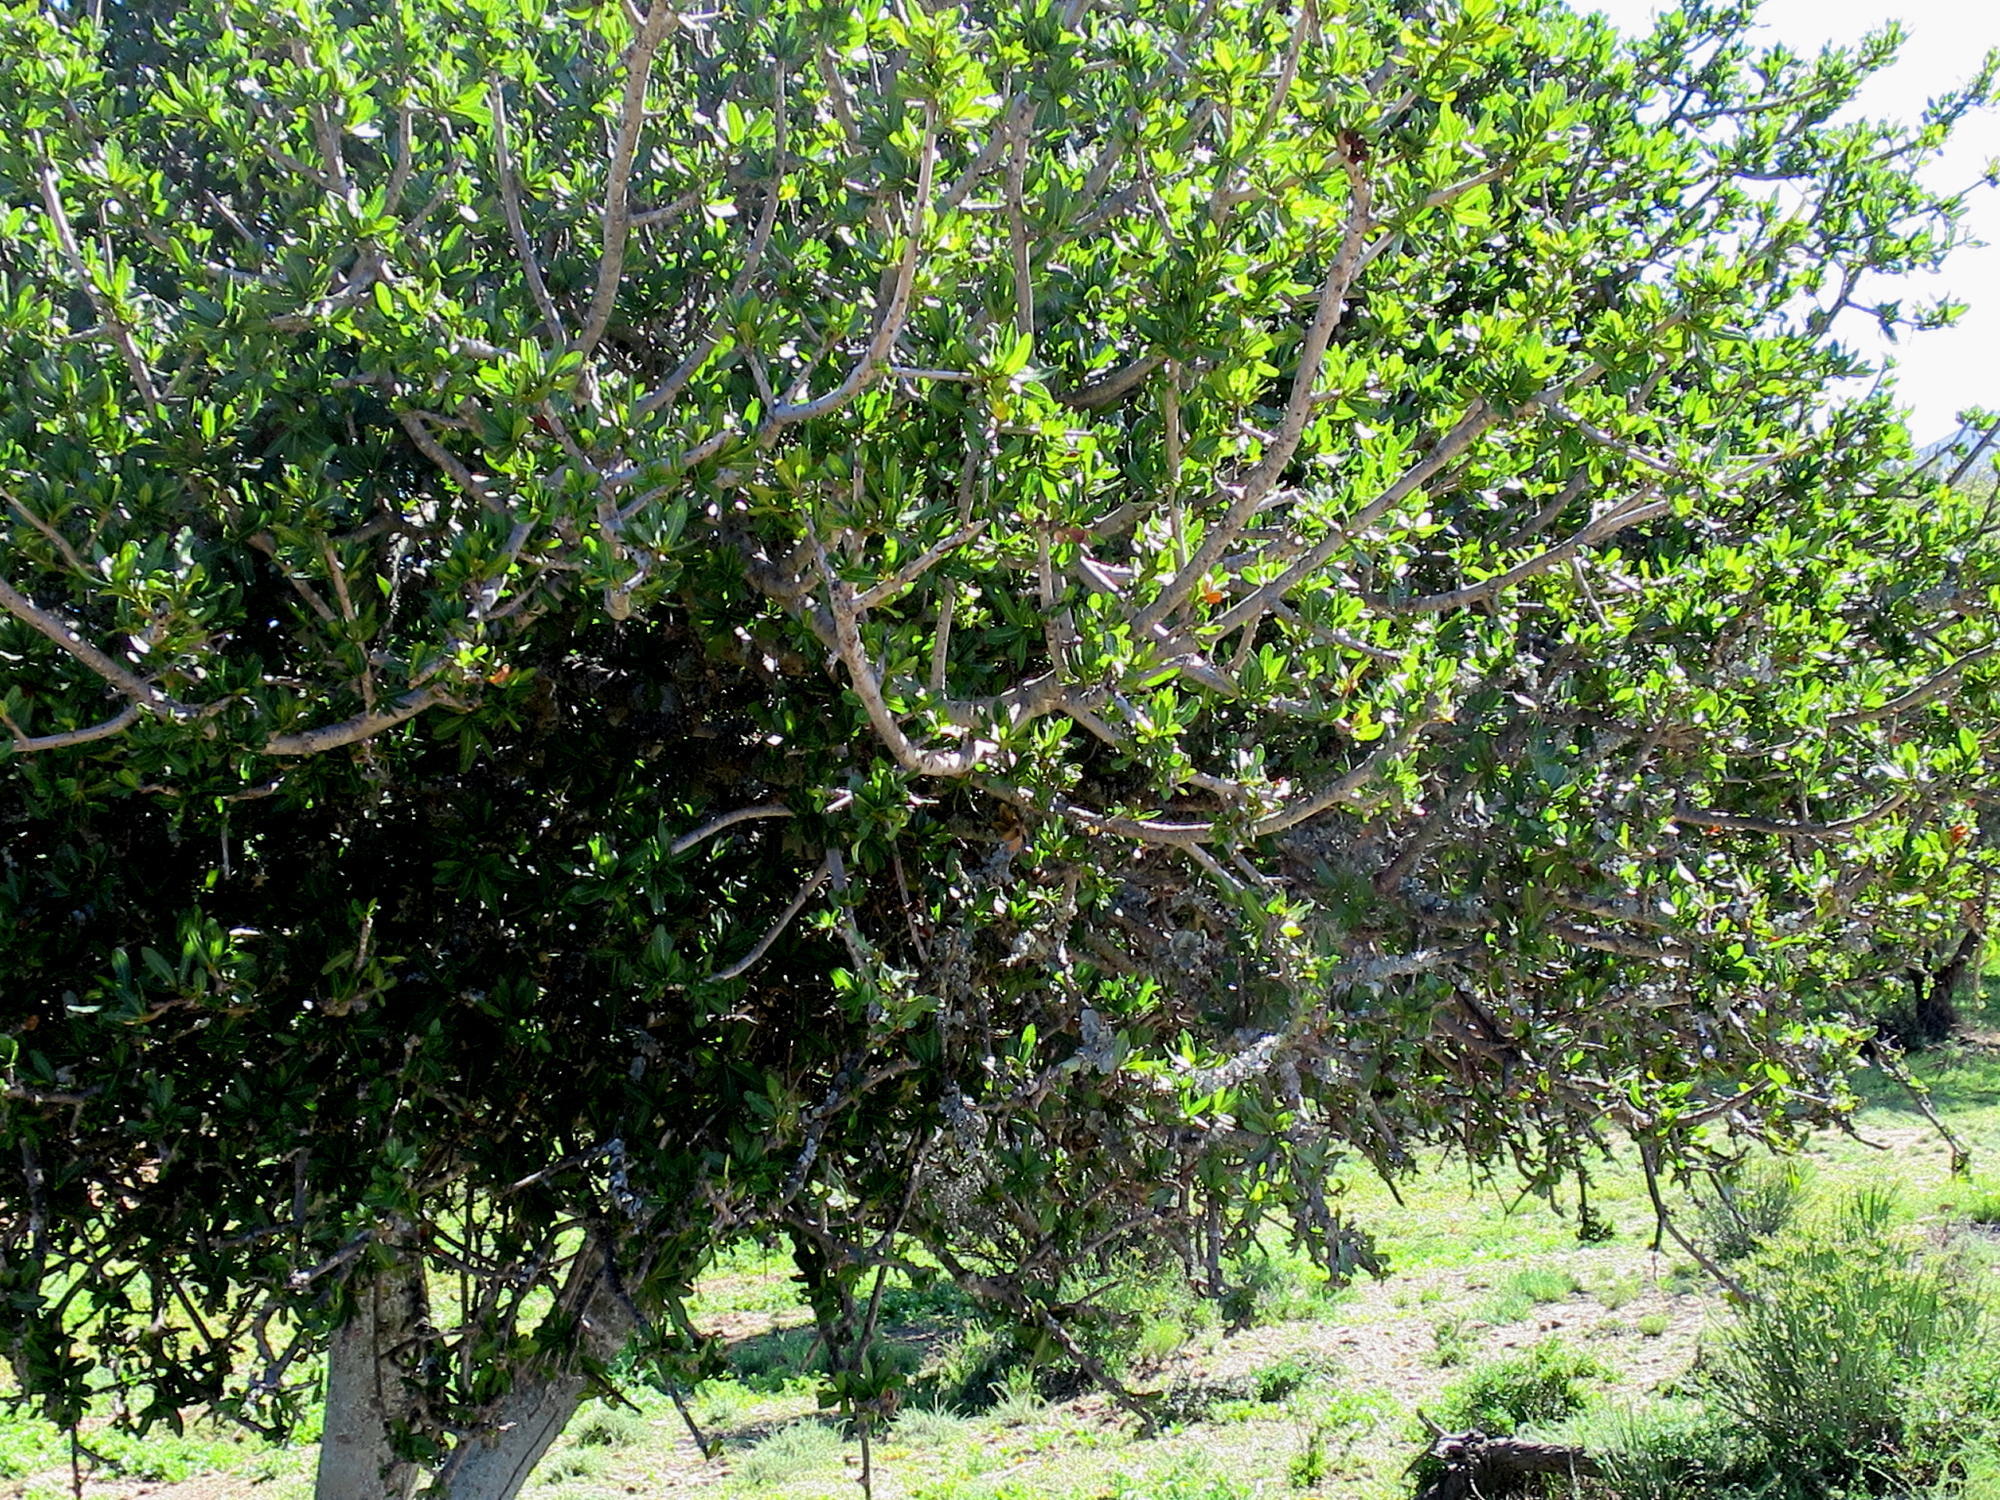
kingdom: Plantae
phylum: Tracheophyta
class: Magnoliopsida
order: Sapindales
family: Sapindaceae
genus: Pappea
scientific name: Pappea capensis
